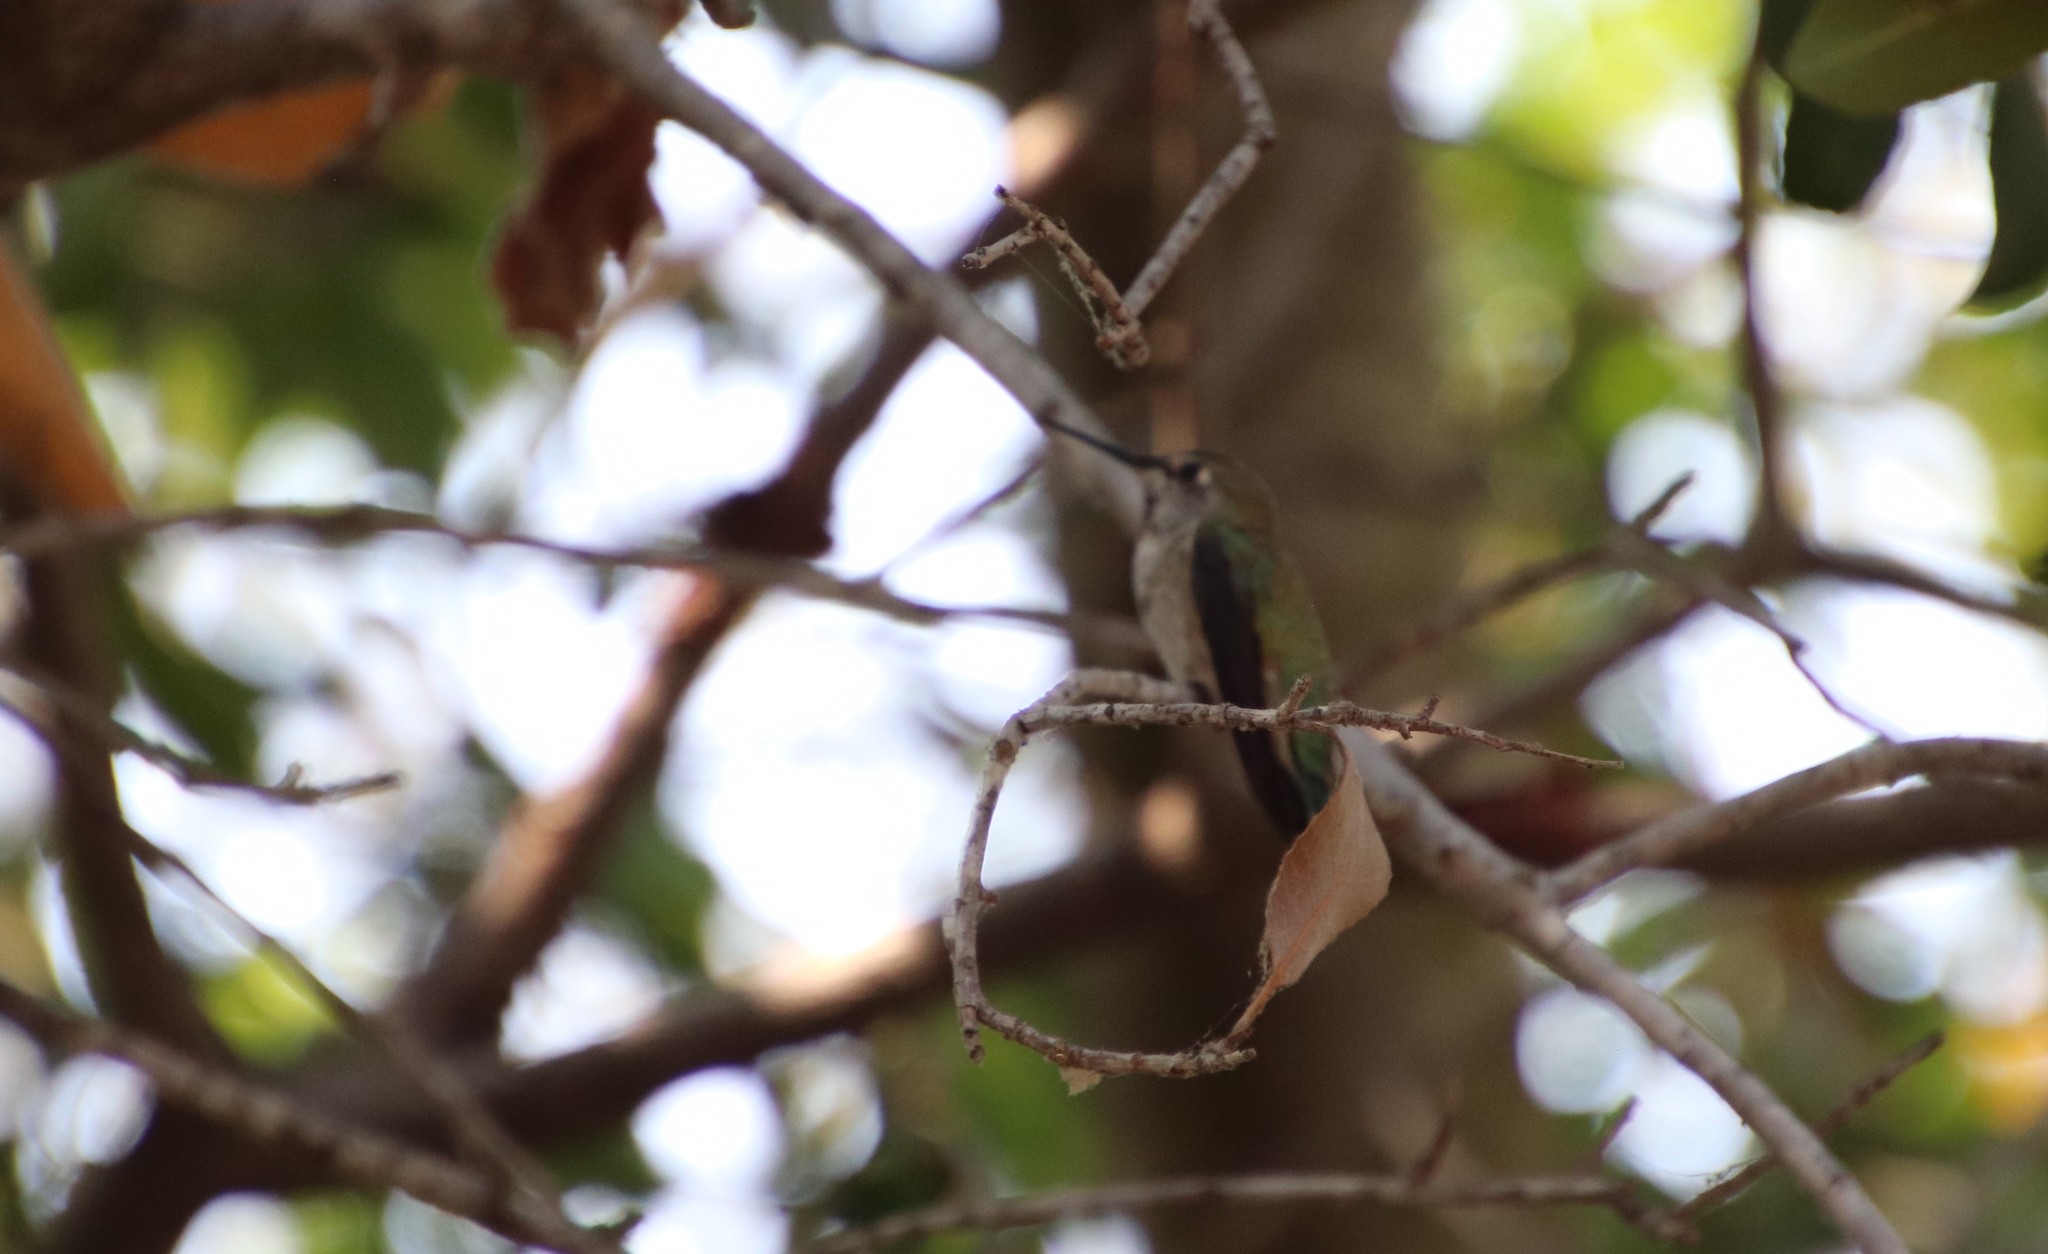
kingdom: Animalia
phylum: Chordata
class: Aves
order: Apodiformes
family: Trochilidae
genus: Calypte
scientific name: Calypte anna
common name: Anna's hummingbird
